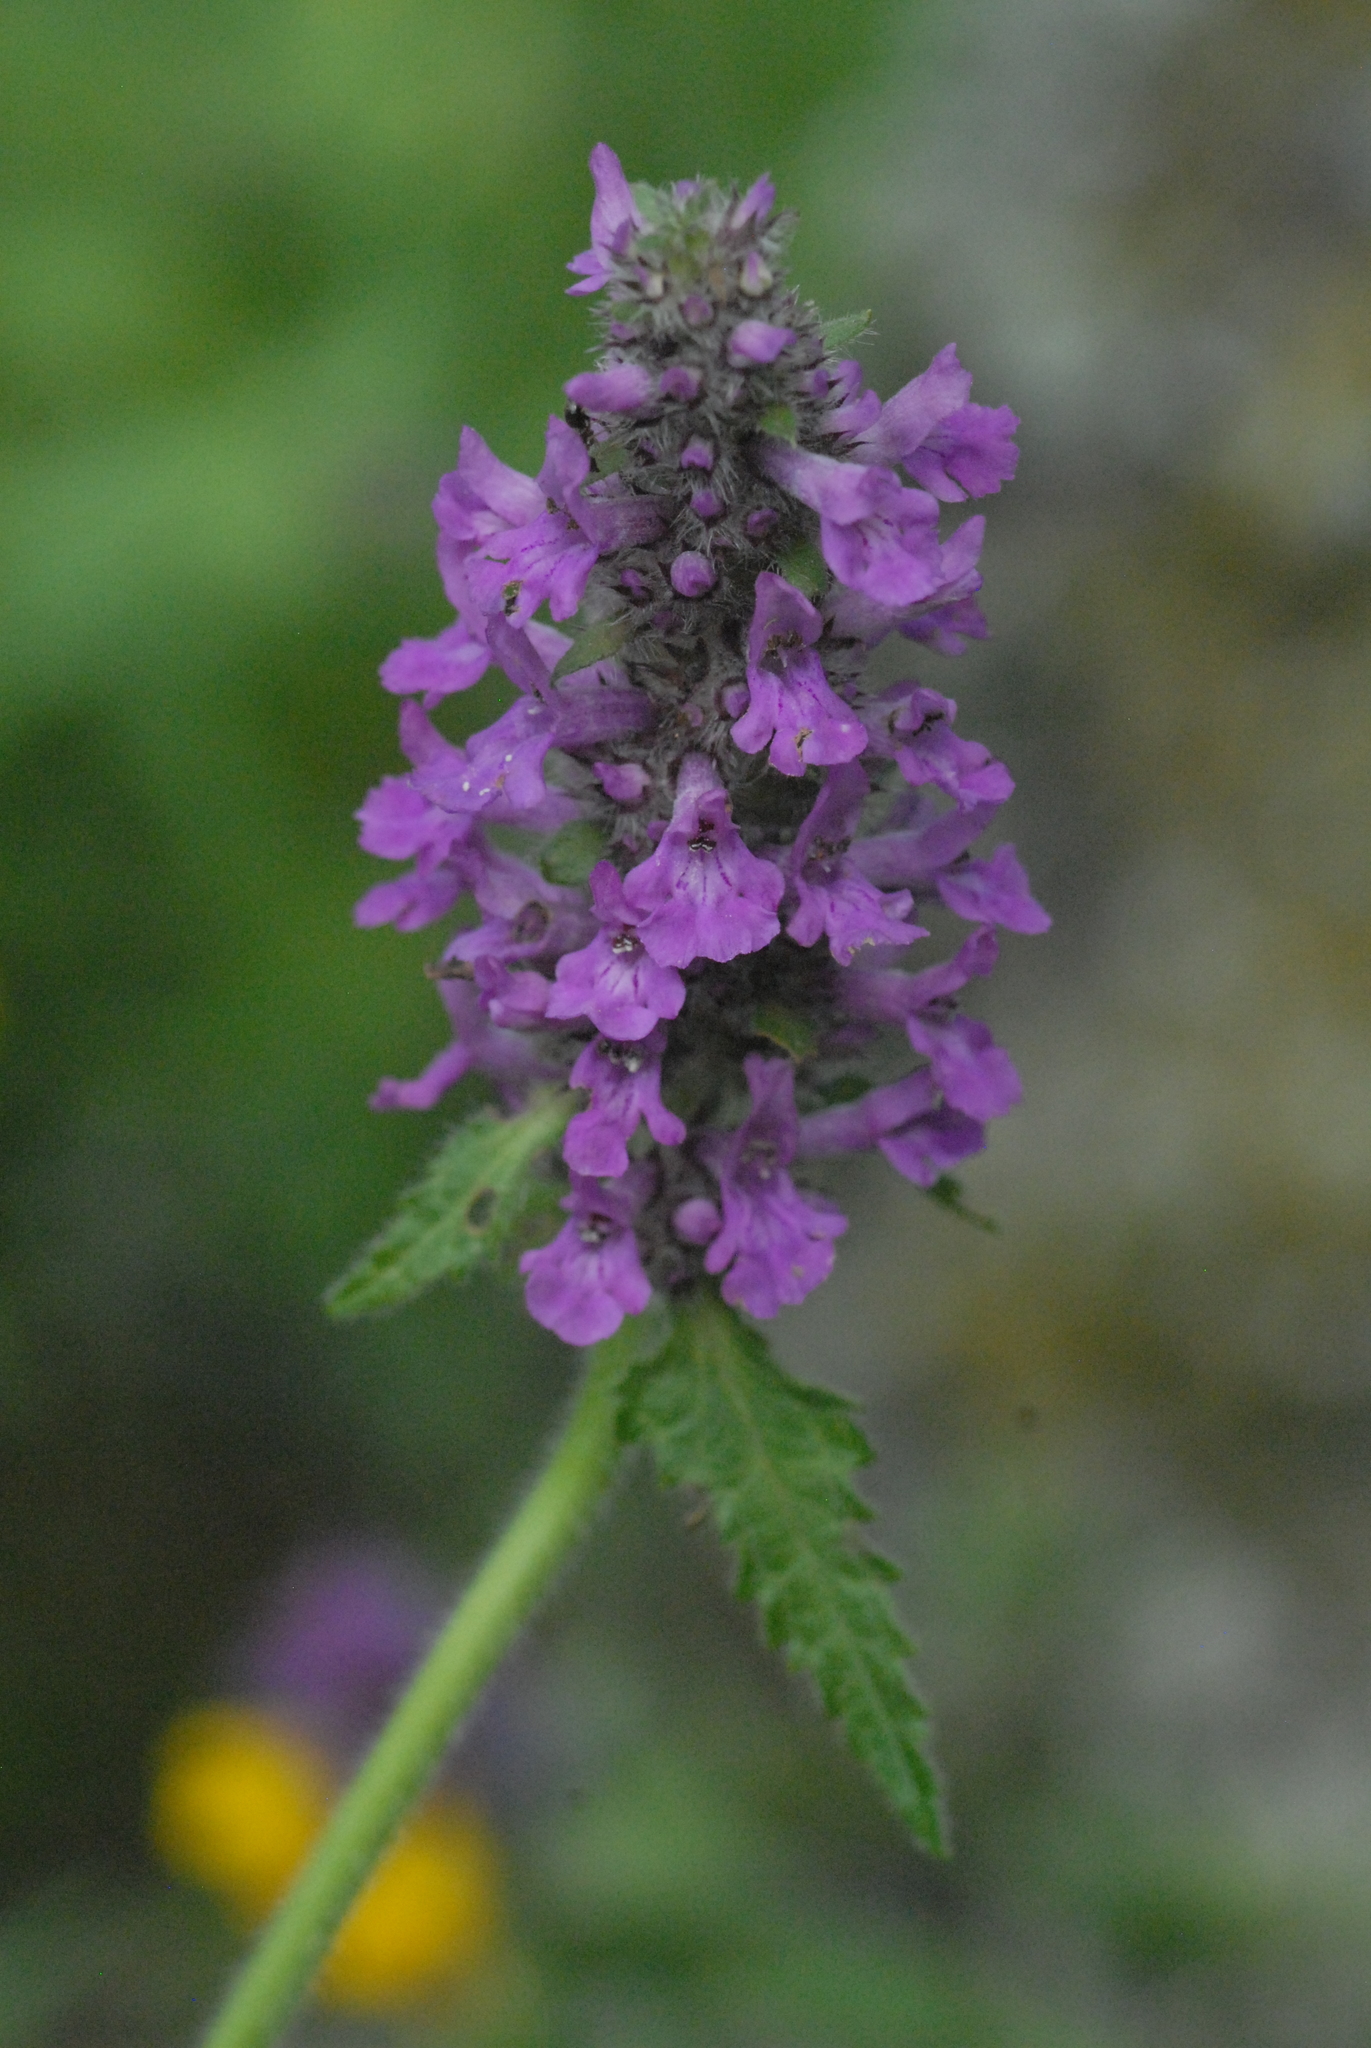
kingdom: Plantae
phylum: Tracheophyta
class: Magnoliopsida
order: Lamiales
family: Lamiaceae
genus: Betonica
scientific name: Betonica officinalis
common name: Bishop's-wort
